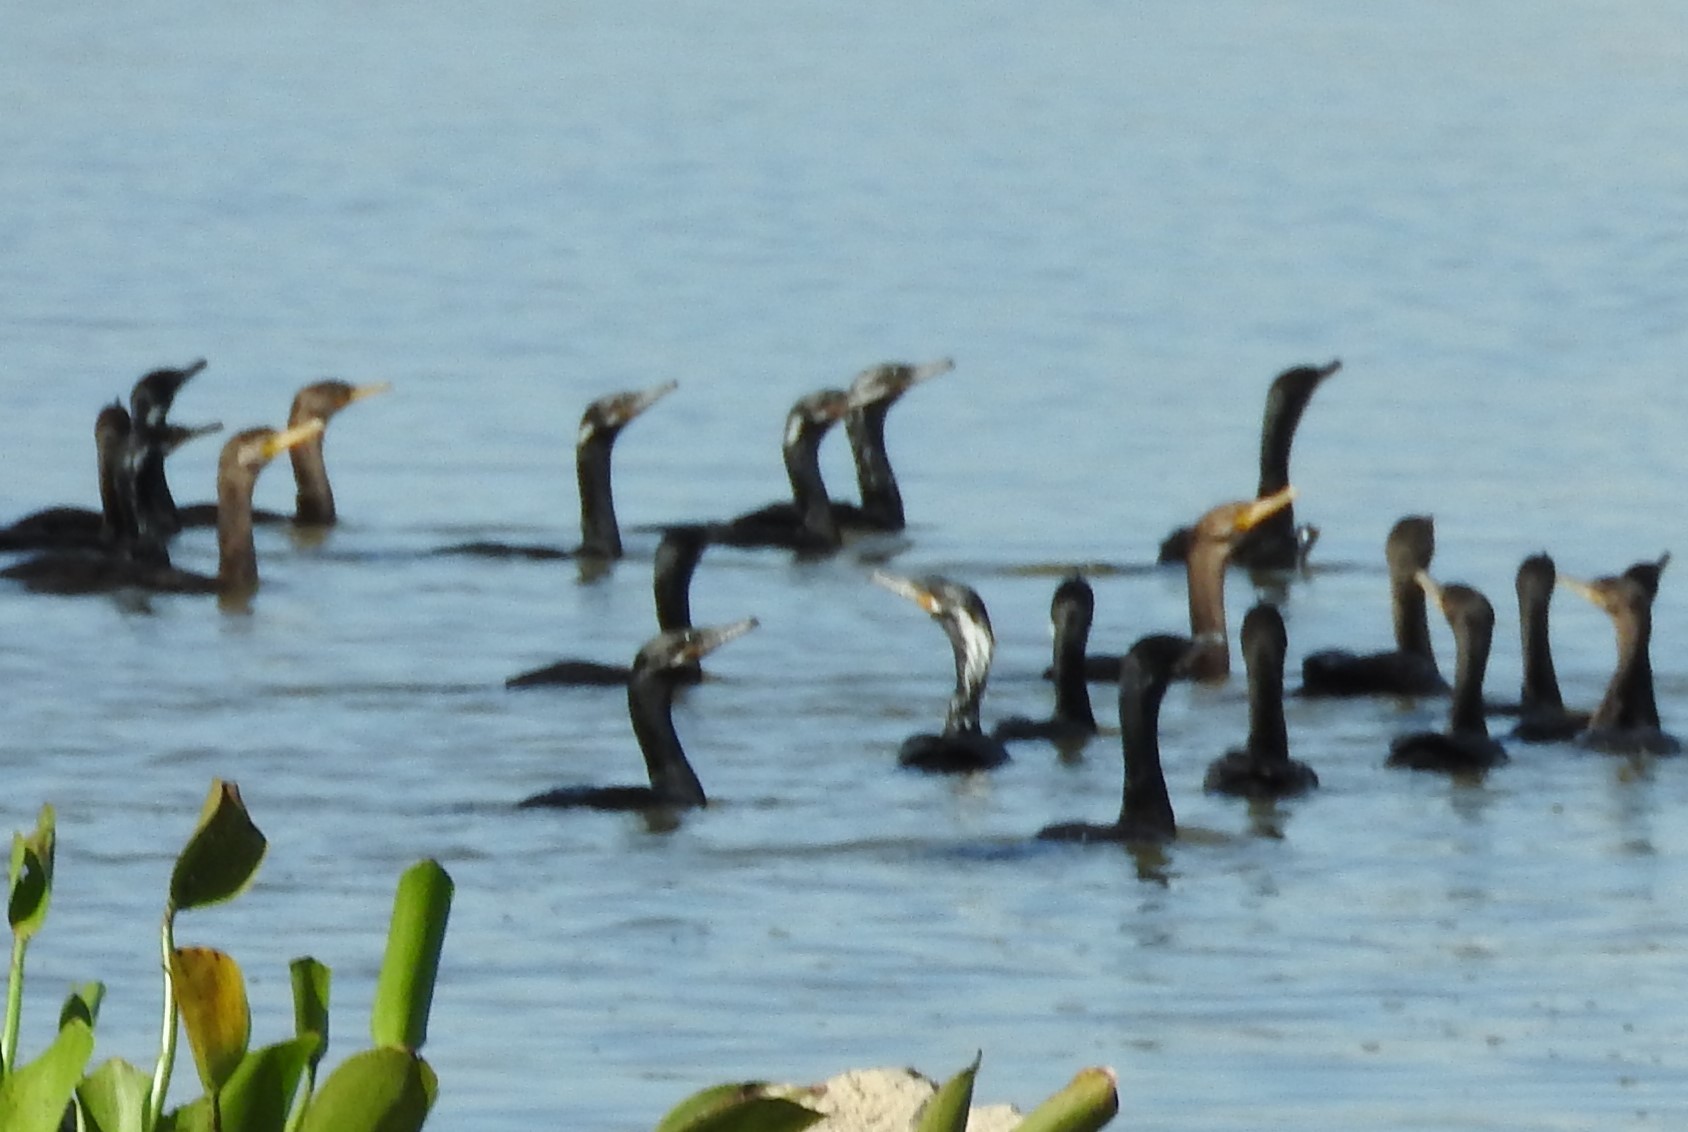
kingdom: Animalia
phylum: Chordata
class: Aves
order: Suliformes
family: Phalacrocoracidae
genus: Phalacrocorax
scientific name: Phalacrocorax brasilianus
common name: Neotropic cormorant
